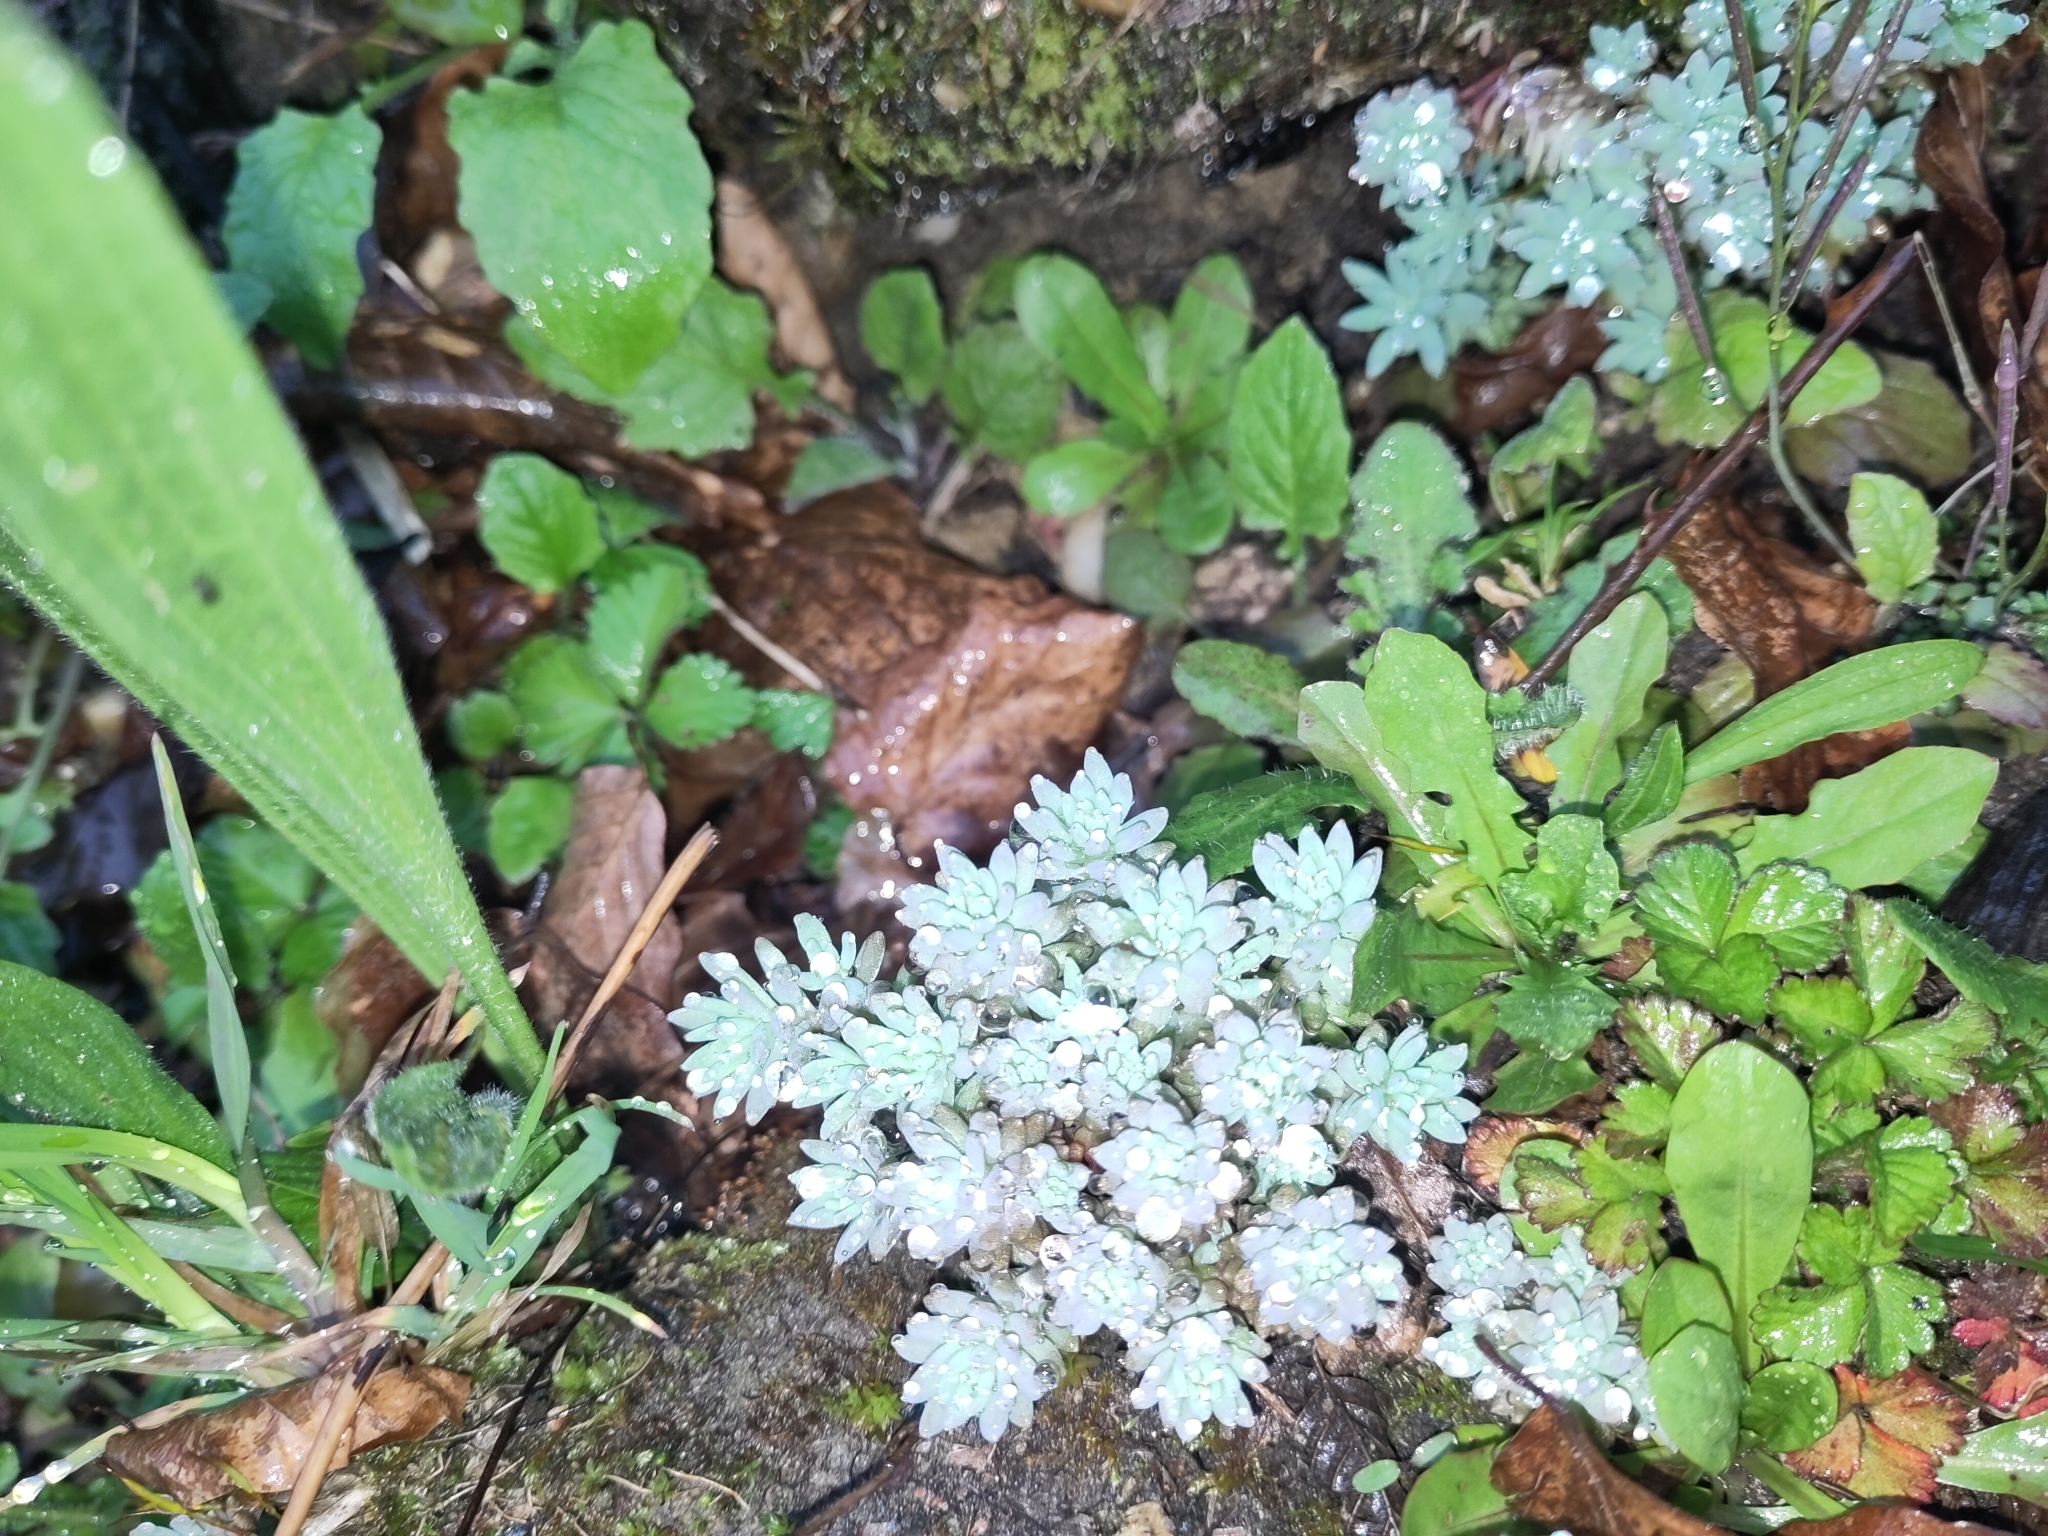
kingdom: Plantae
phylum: Tracheophyta
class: Magnoliopsida
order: Saxifragales
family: Crassulaceae
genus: Sedum
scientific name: Sedum hispanicum
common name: Spanish stonecrop
